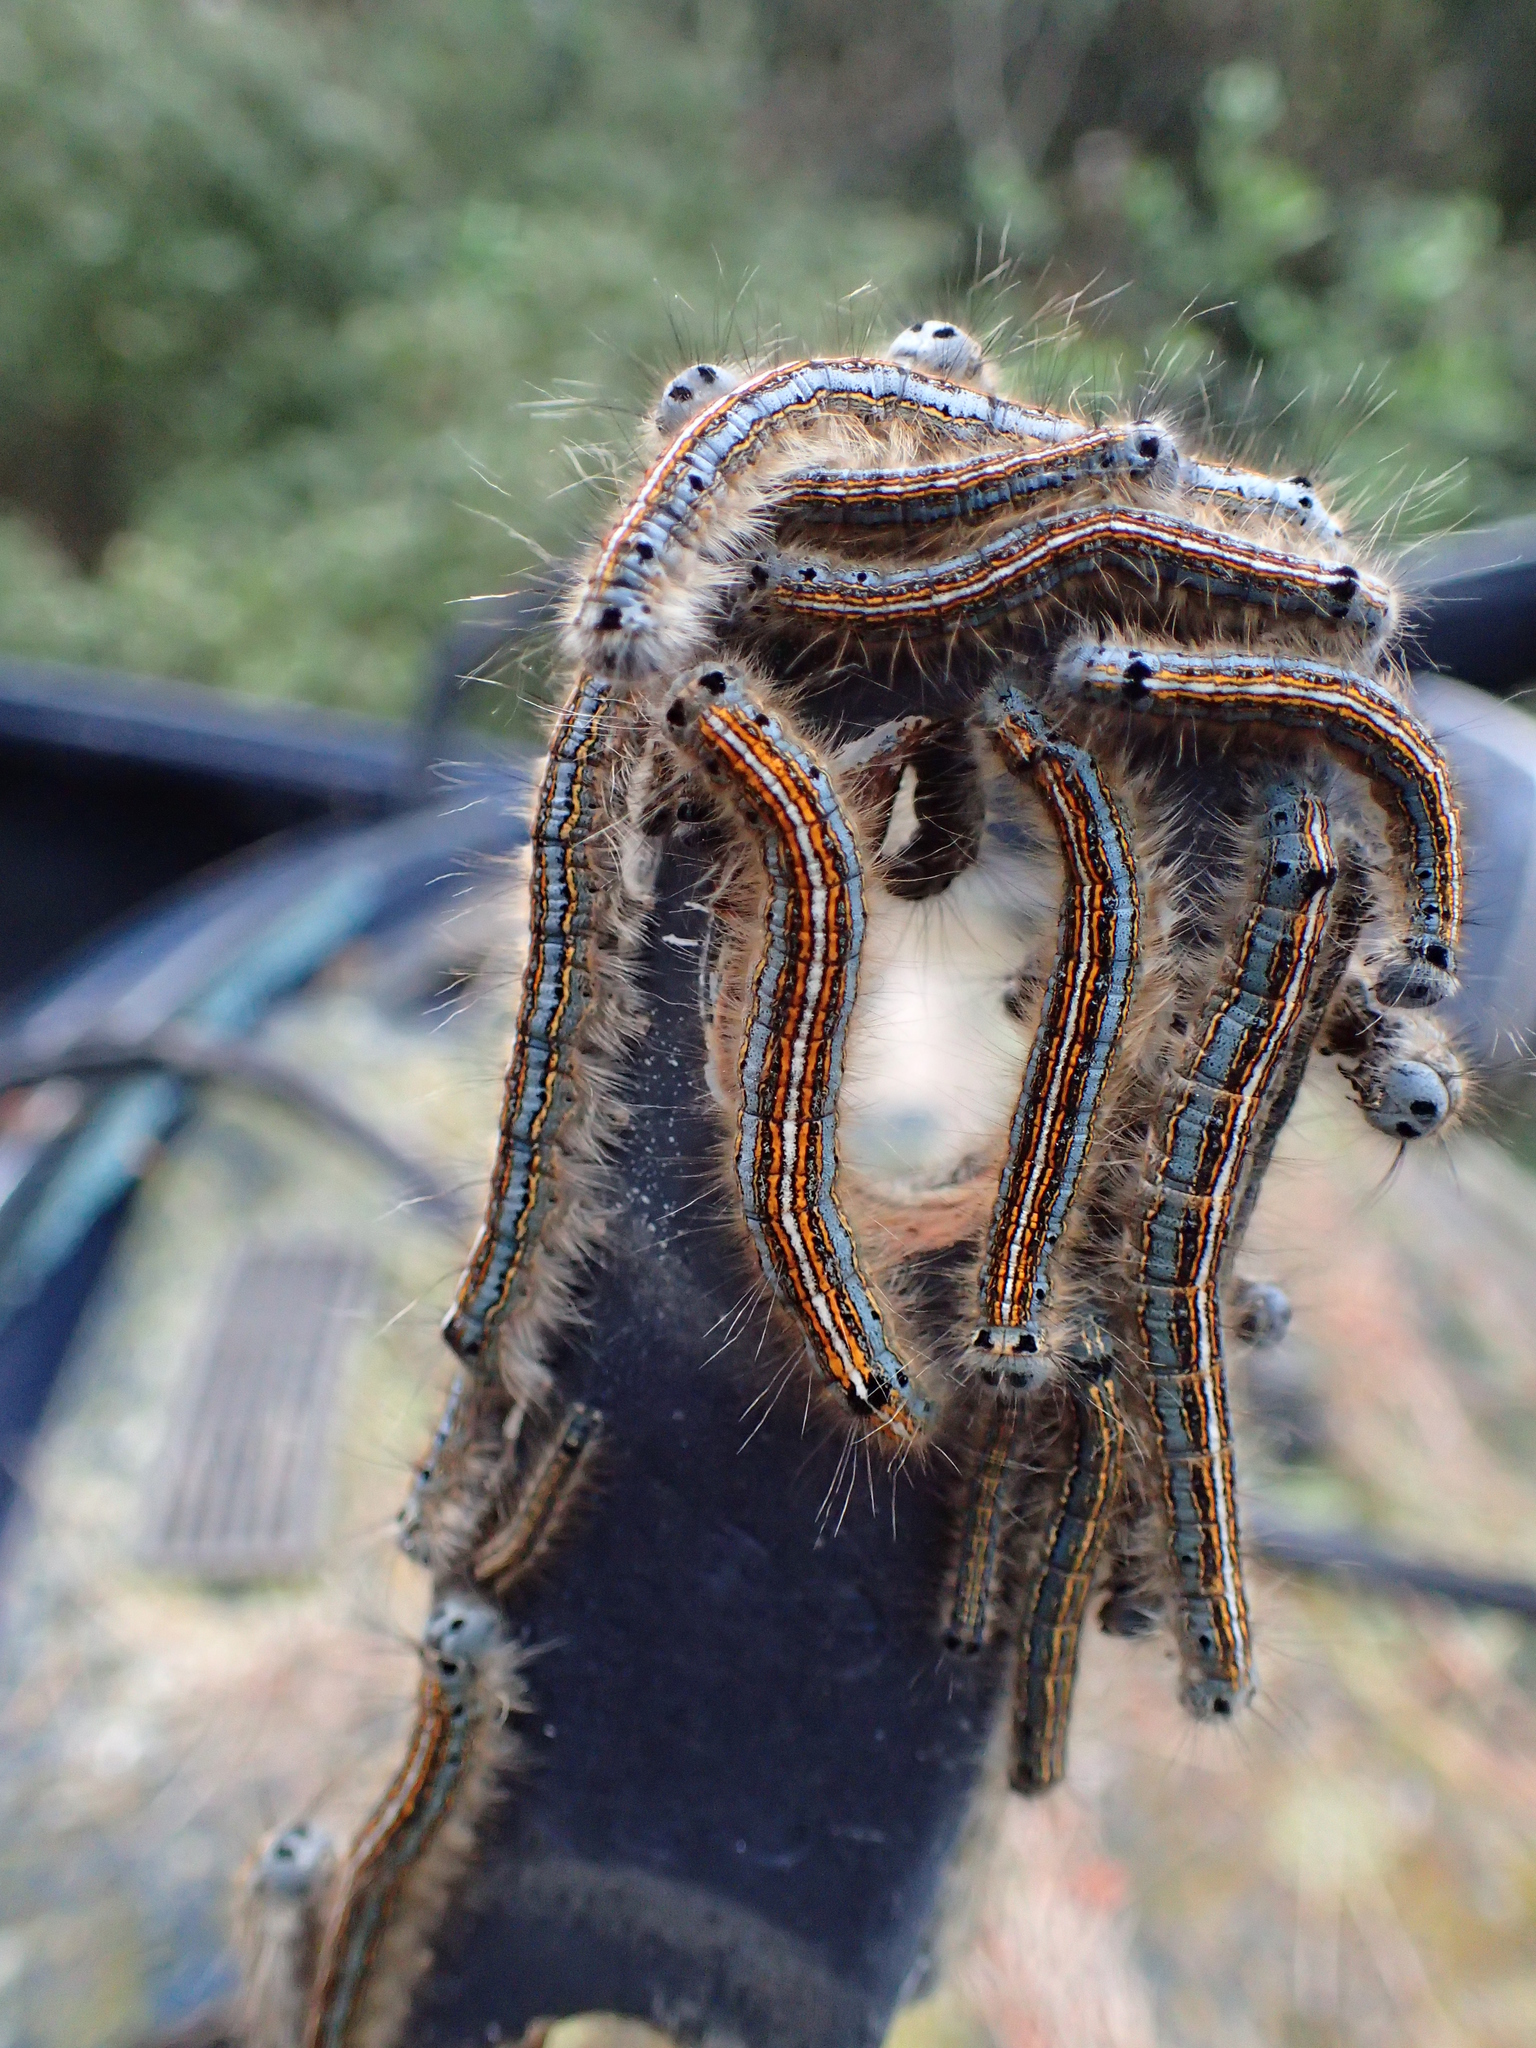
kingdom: Animalia
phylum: Arthropoda
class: Insecta
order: Lepidoptera
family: Lasiocampidae
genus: Malacosoma
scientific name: Malacosoma neustria
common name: The lackey
